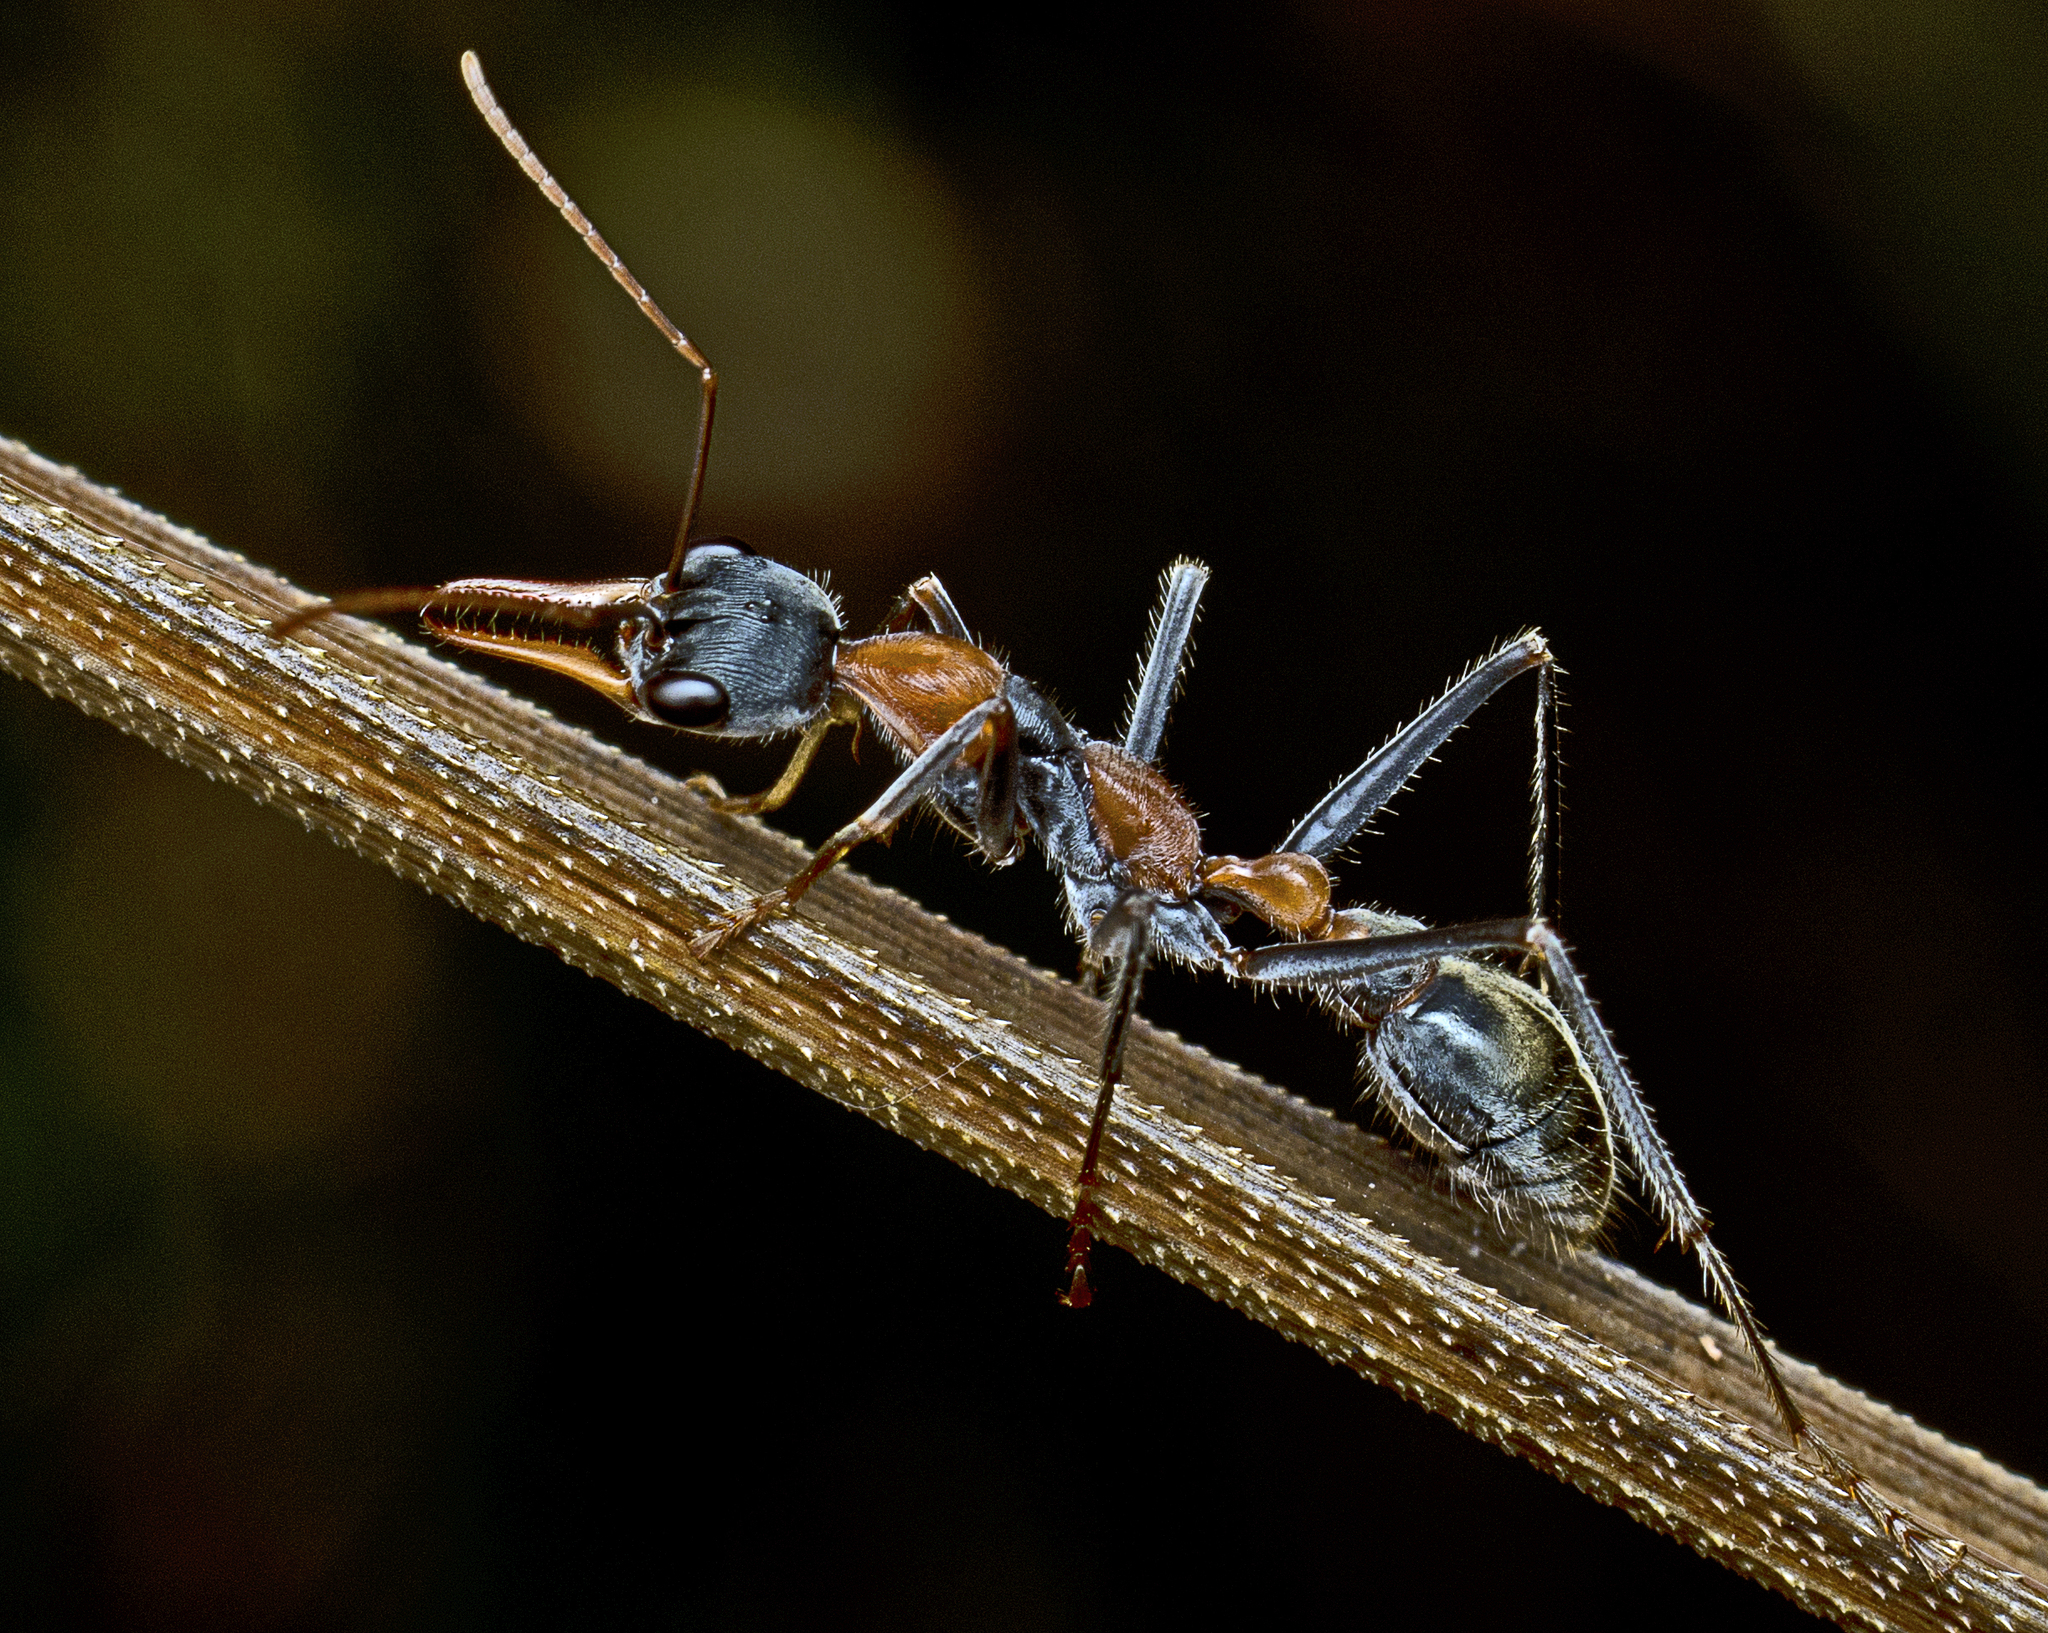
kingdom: Animalia
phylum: Arthropoda
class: Insecta
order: Hymenoptera
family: Formicidae
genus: Myrmecia
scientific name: Myrmecia nigrocincta
